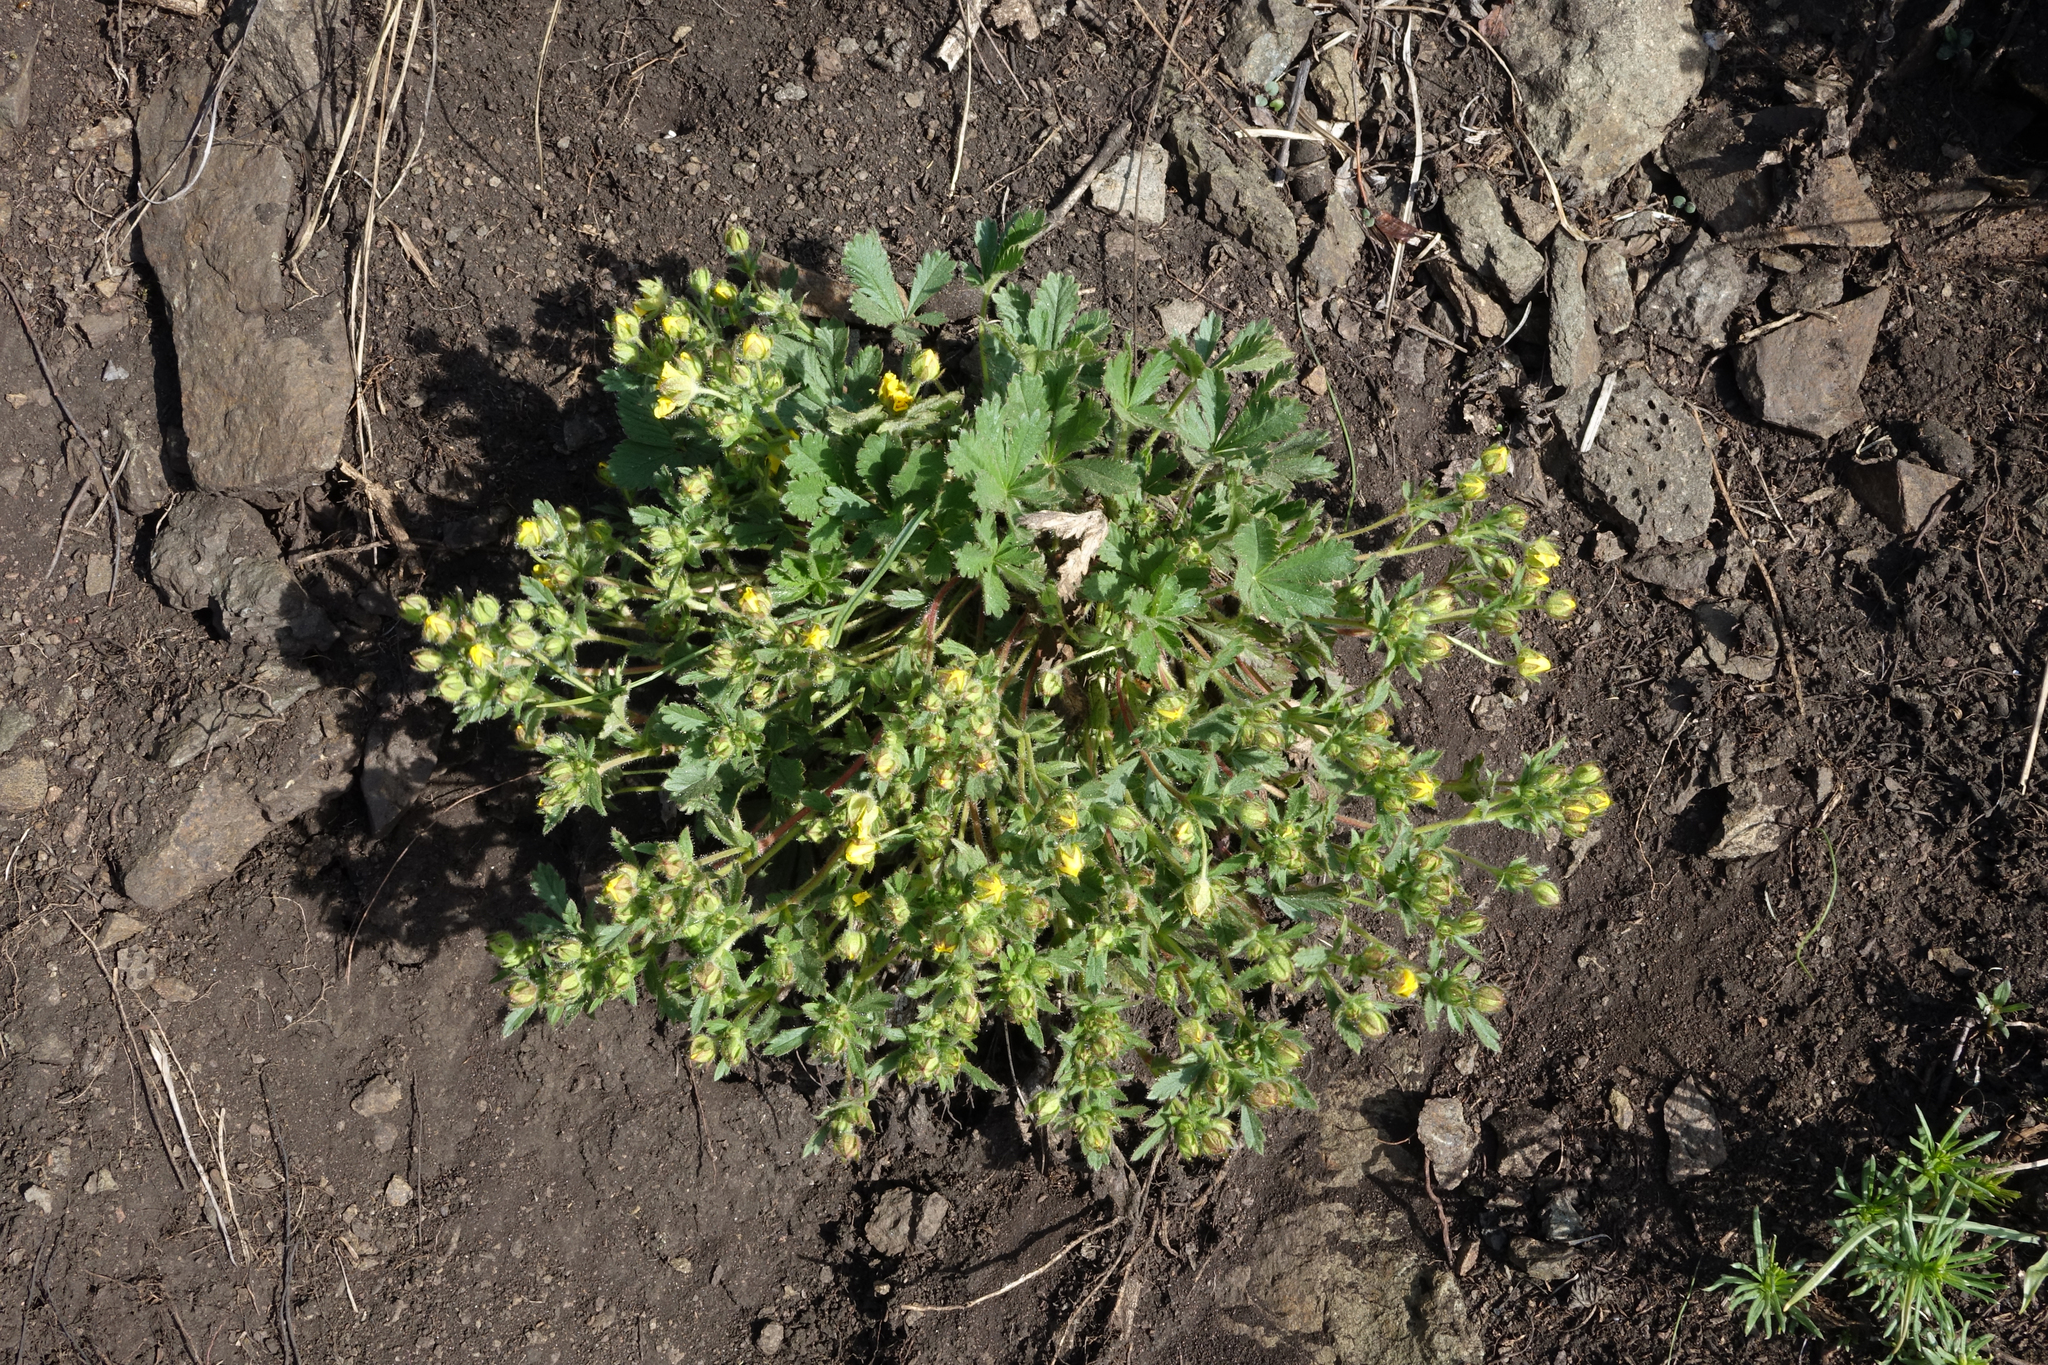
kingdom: Plantae
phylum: Tracheophyta
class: Magnoliopsida
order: Rosales
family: Rosaceae
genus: Potentilla
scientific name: Potentilla humifusa
